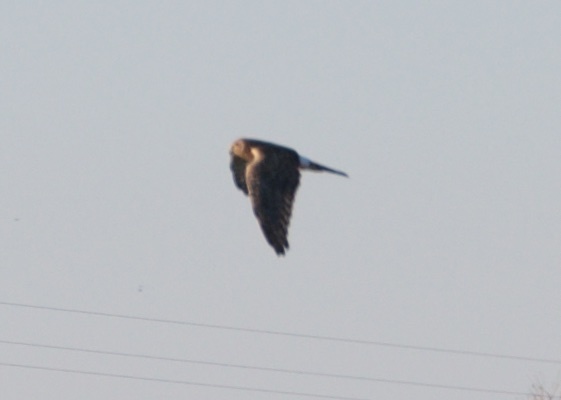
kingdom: Animalia
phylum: Chordata
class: Aves
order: Accipitriformes
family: Accipitridae
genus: Circus
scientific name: Circus cyaneus
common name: Hen harrier
